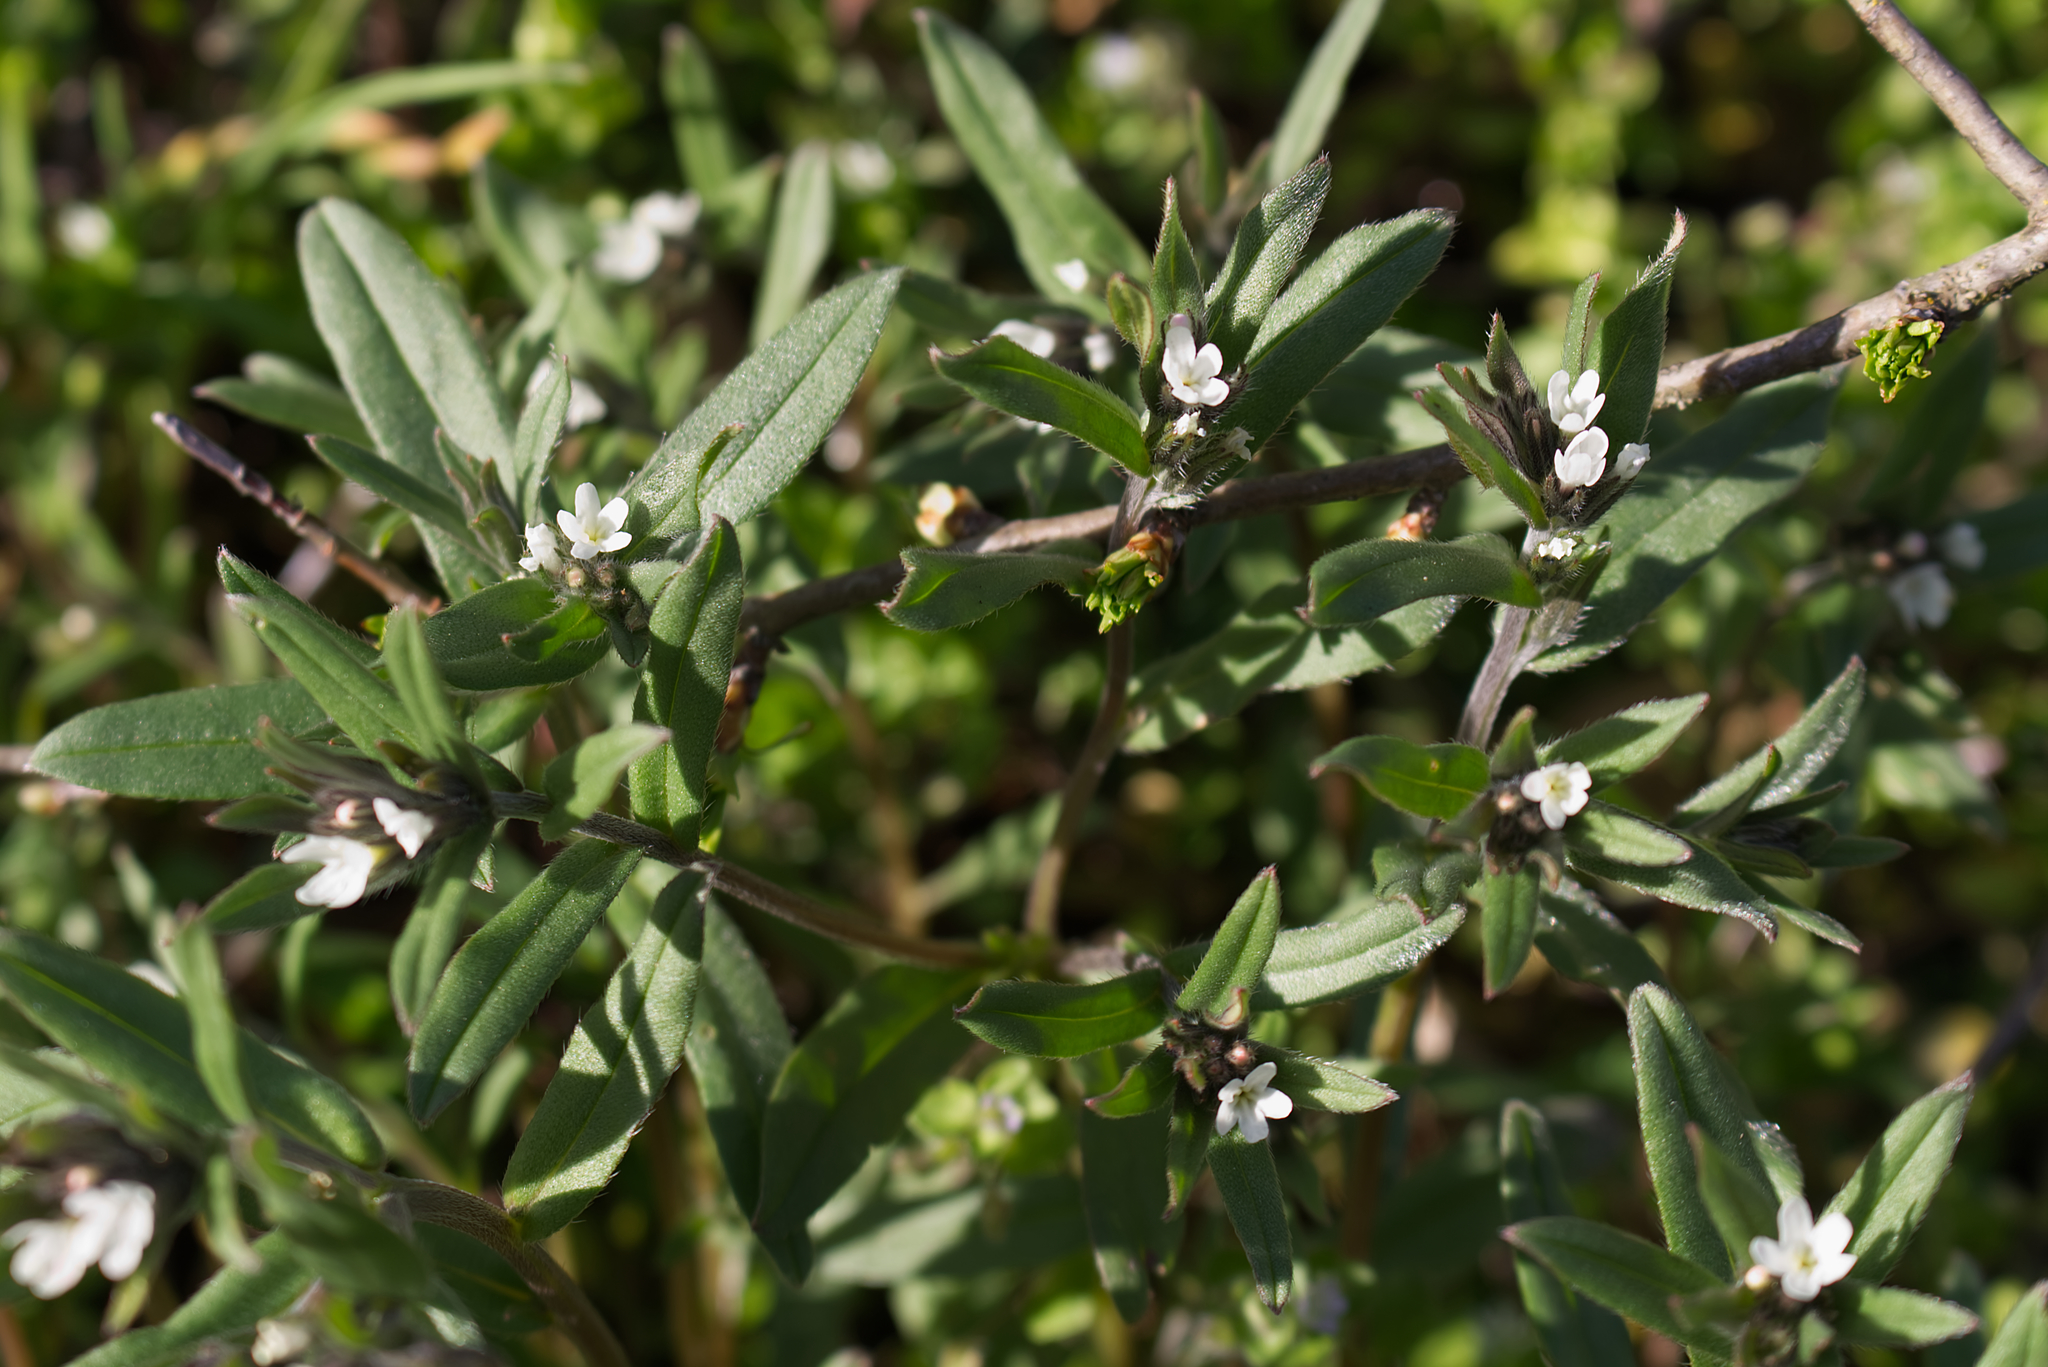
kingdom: Plantae
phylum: Tracheophyta
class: Magnoliopsida
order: Boraginales
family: Boraginaceae
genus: Buglossoides
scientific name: Buglossoides arvensis
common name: Corn gromwell
